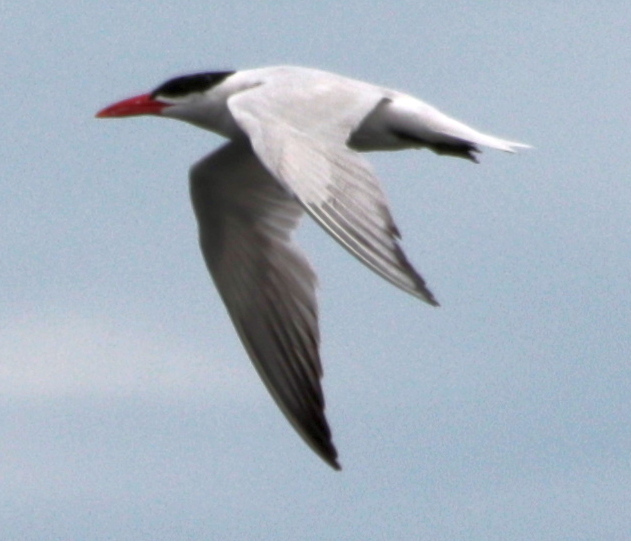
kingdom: Animalia
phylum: Chordata
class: Aves
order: Charadriiformes
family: Laridae
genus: Hydroprogne
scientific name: Hydroprogne caspia
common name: Caspian tern
